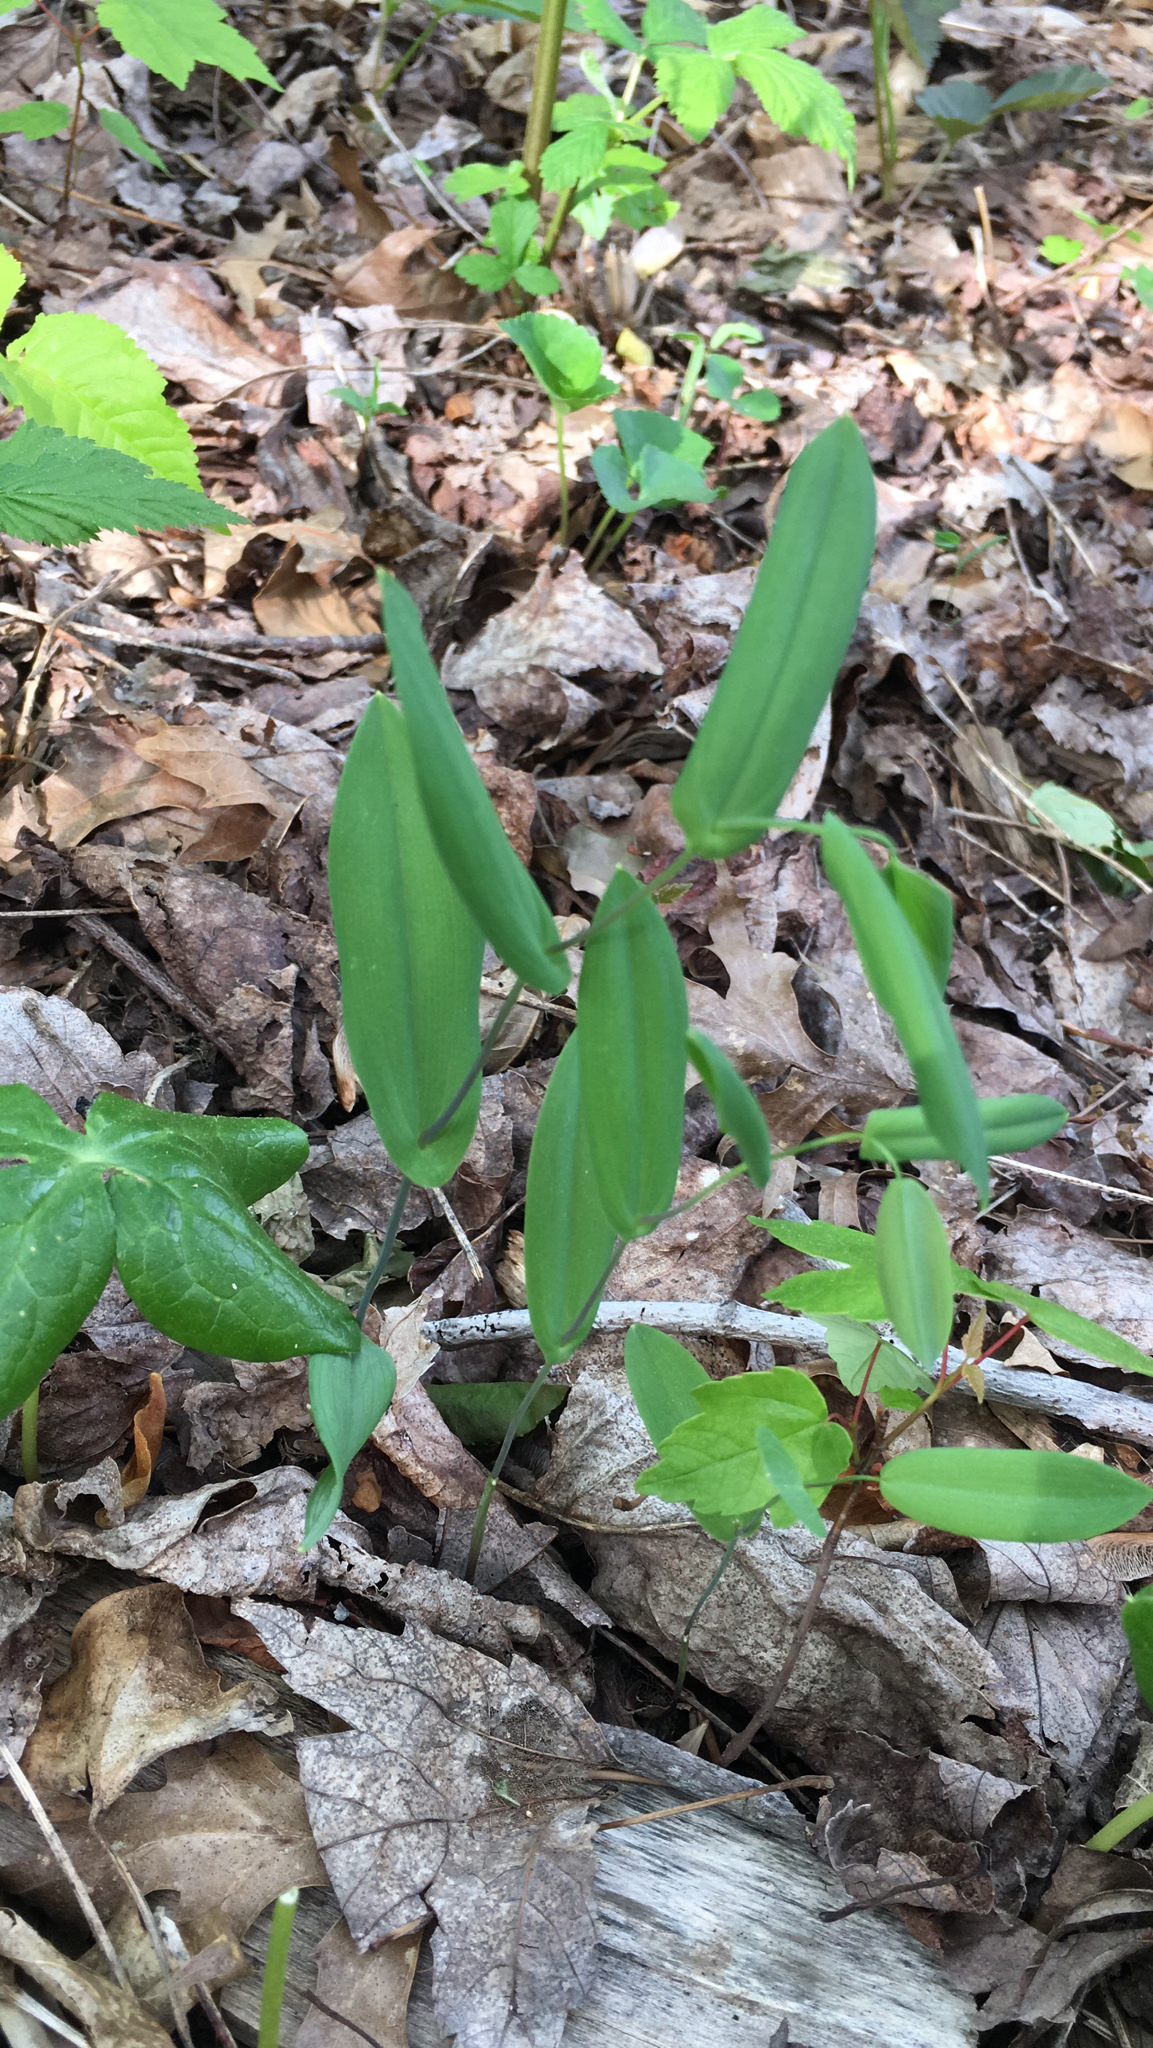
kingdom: Plantae
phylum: Tracheophyta
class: Liliopsida
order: Liliales
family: Colchicaceae
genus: Uvularia
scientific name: Uvularia perfoliata
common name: Perfoliate bellwort
